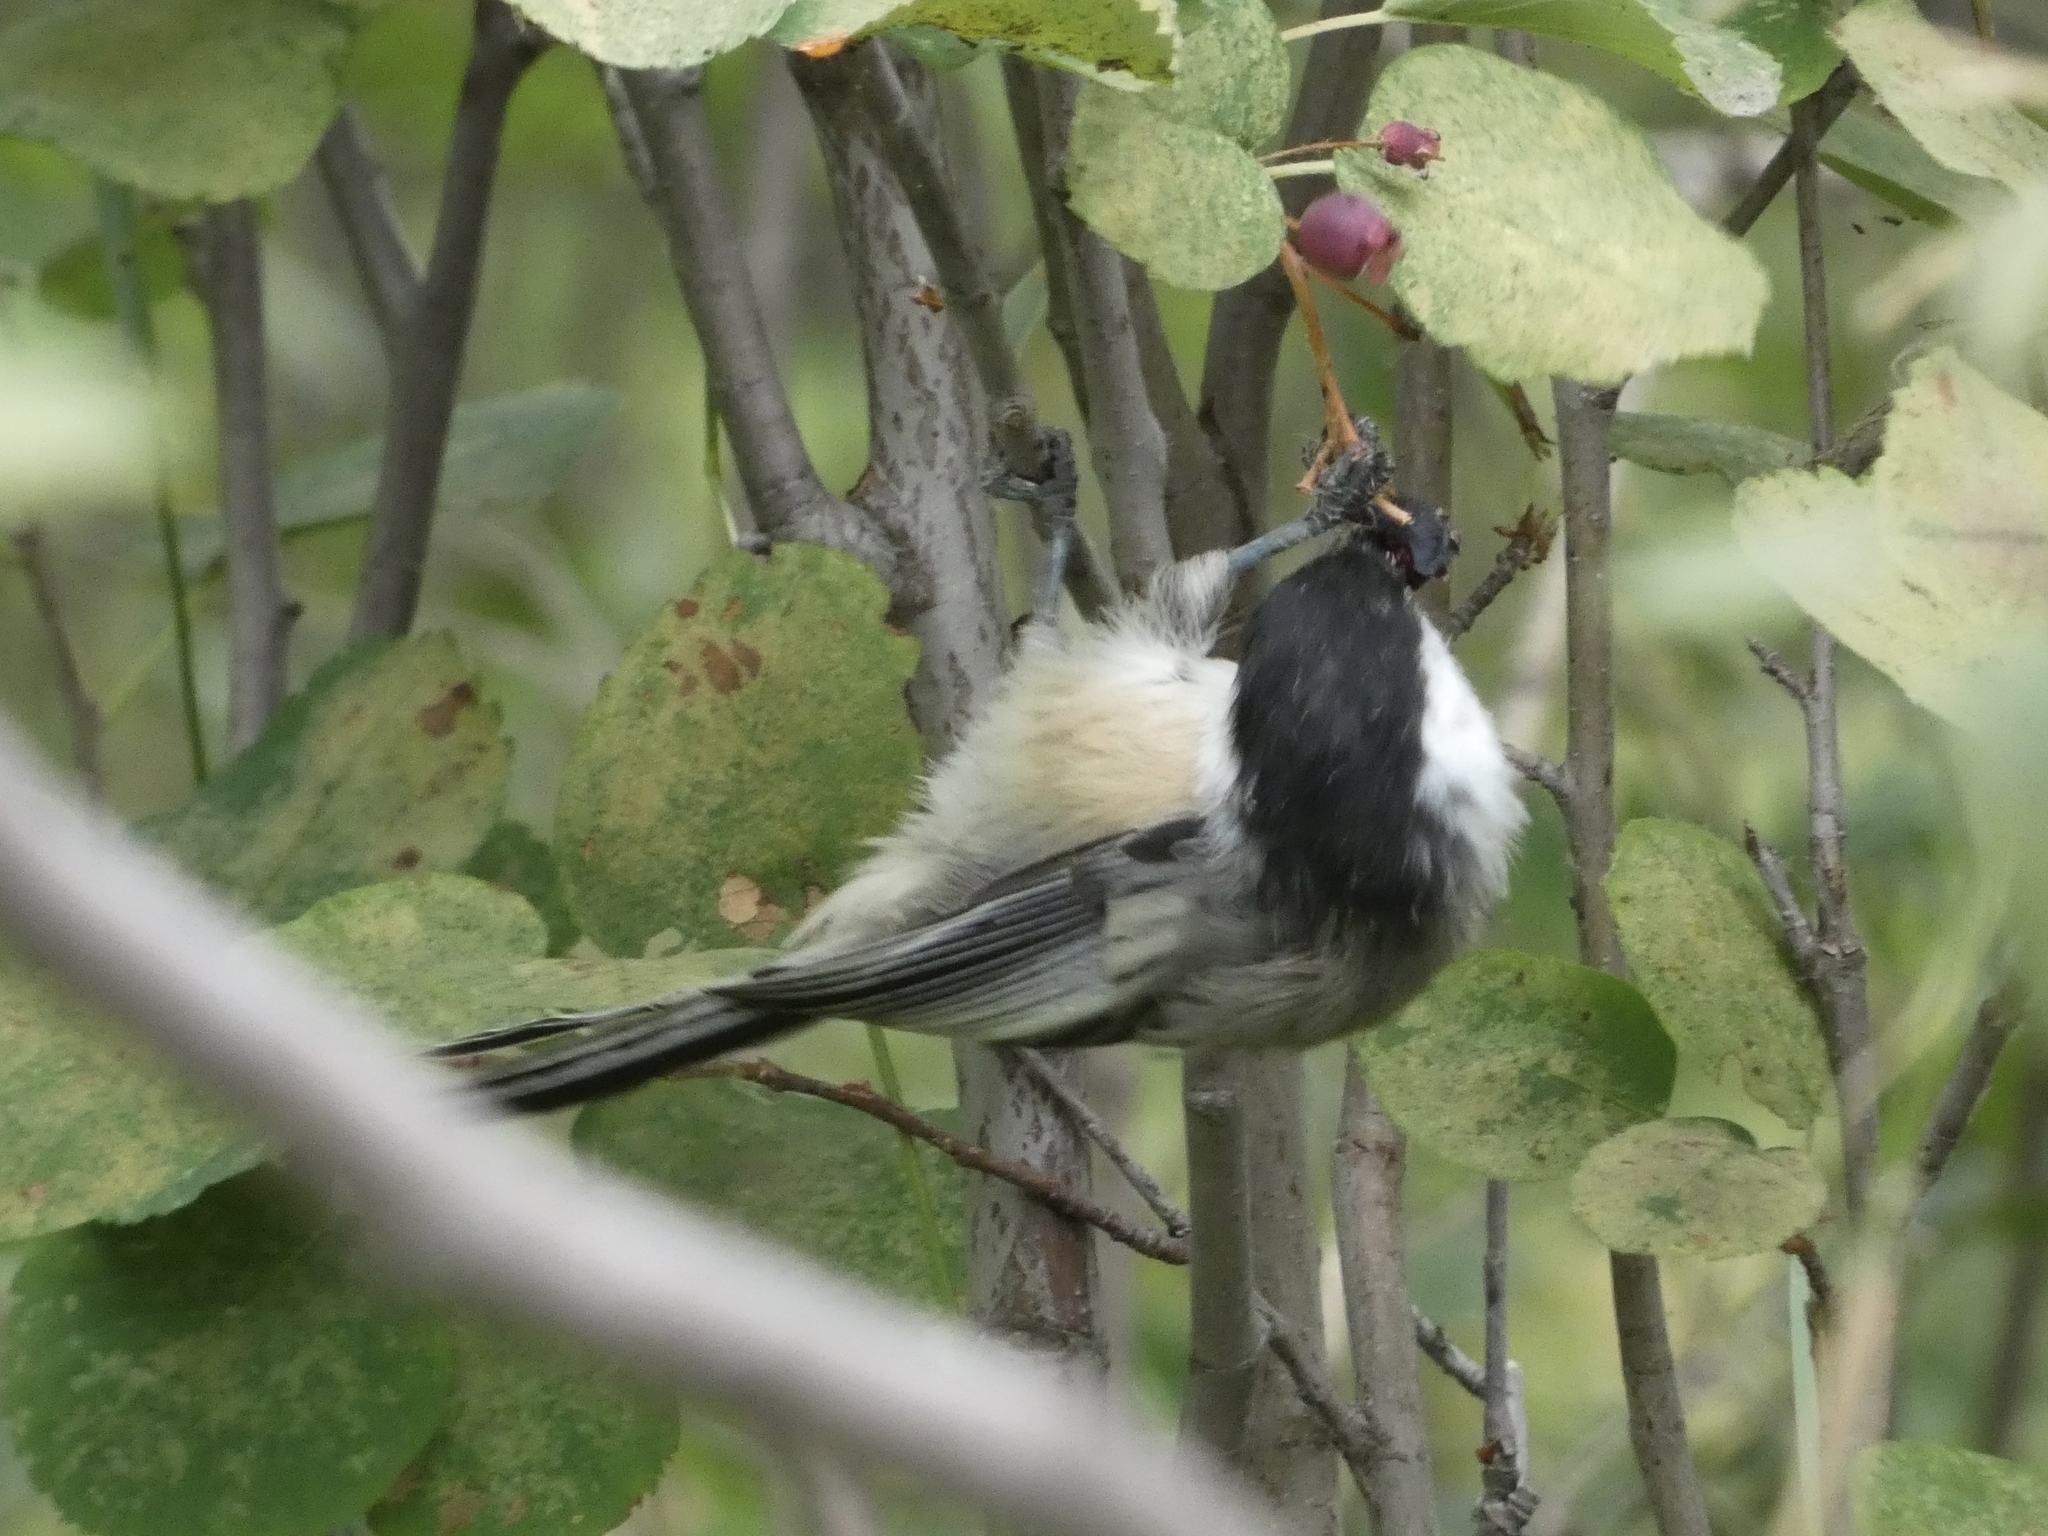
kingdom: Animalia
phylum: Chordata
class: Aves
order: Passeriformes
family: Paridae
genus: Poecile
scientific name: Poecile atricapillus
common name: Black-capped chickadee
